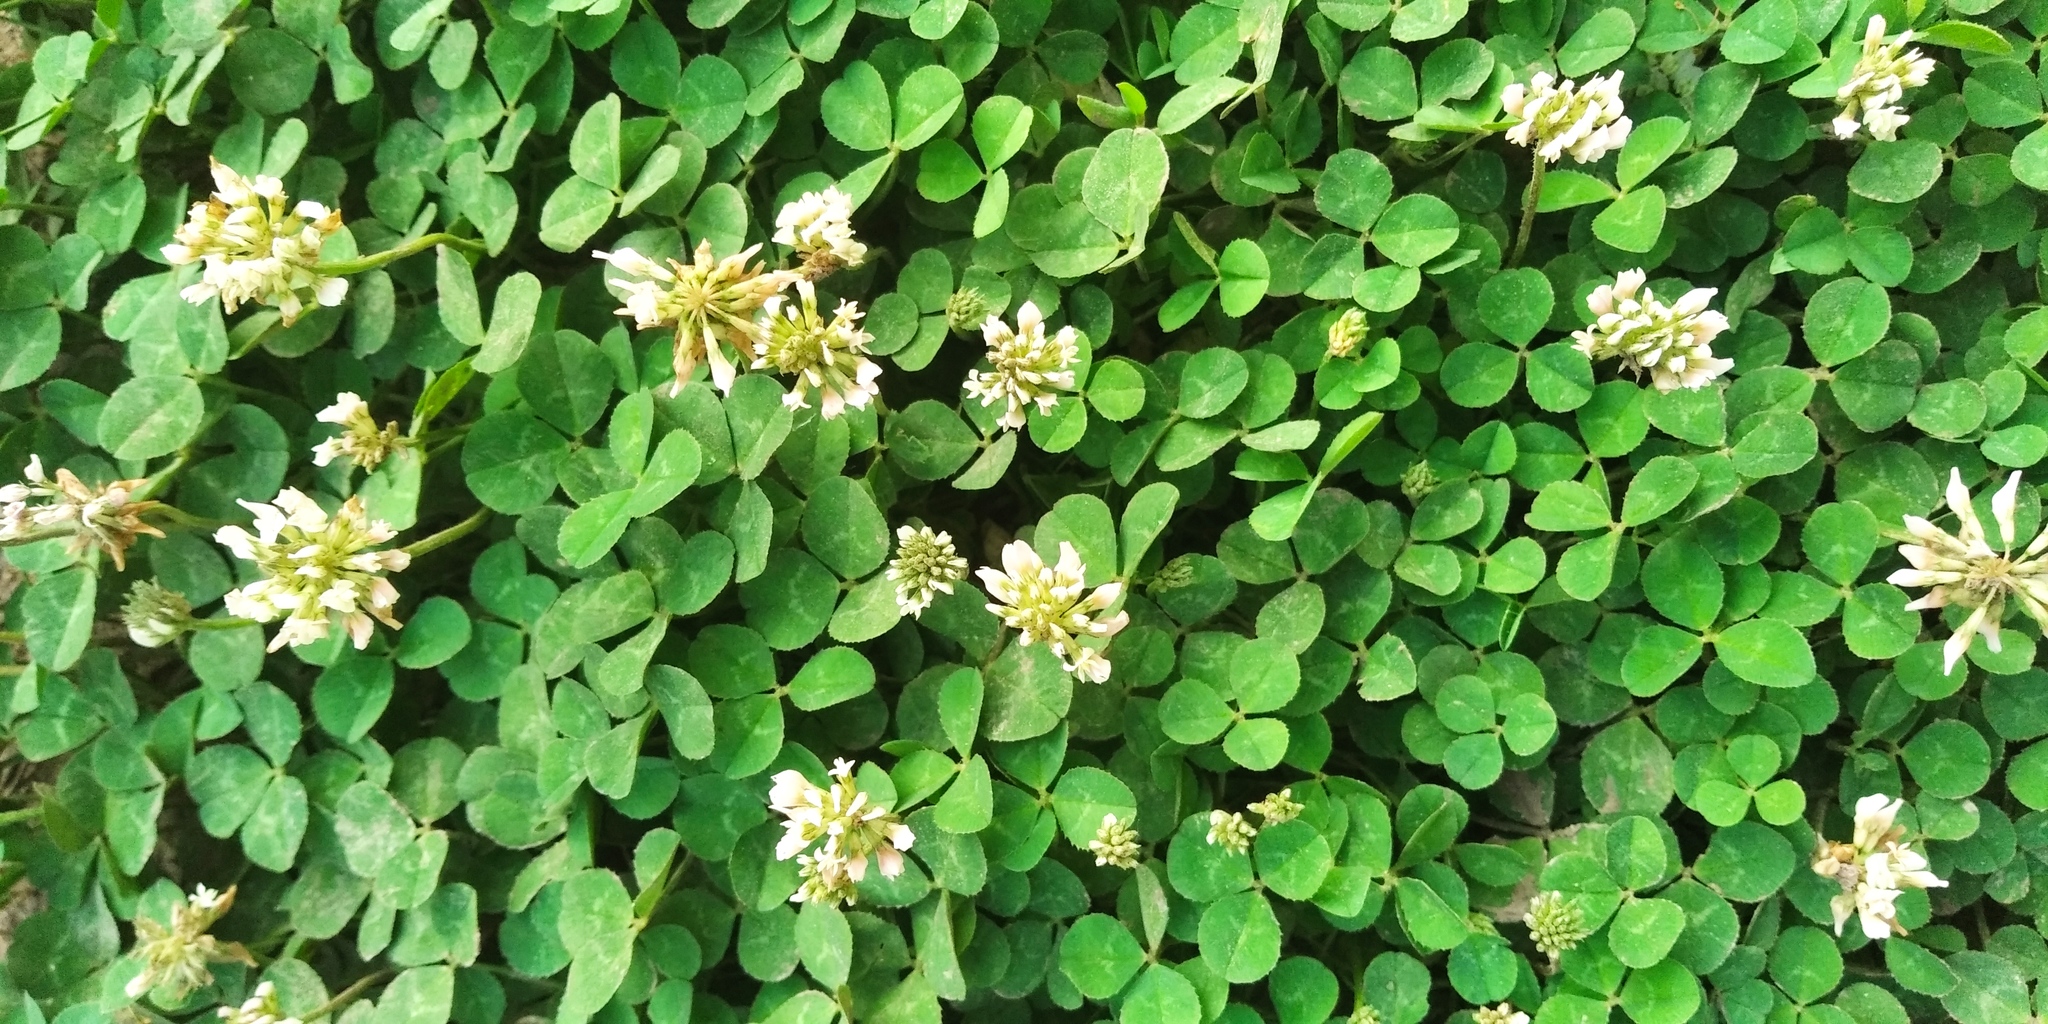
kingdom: Plantae
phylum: Tracheophyta
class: Magnoliopsida
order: Fabales
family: Fabaceae
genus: Trifolium
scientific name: Trifolium repens
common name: White clover
